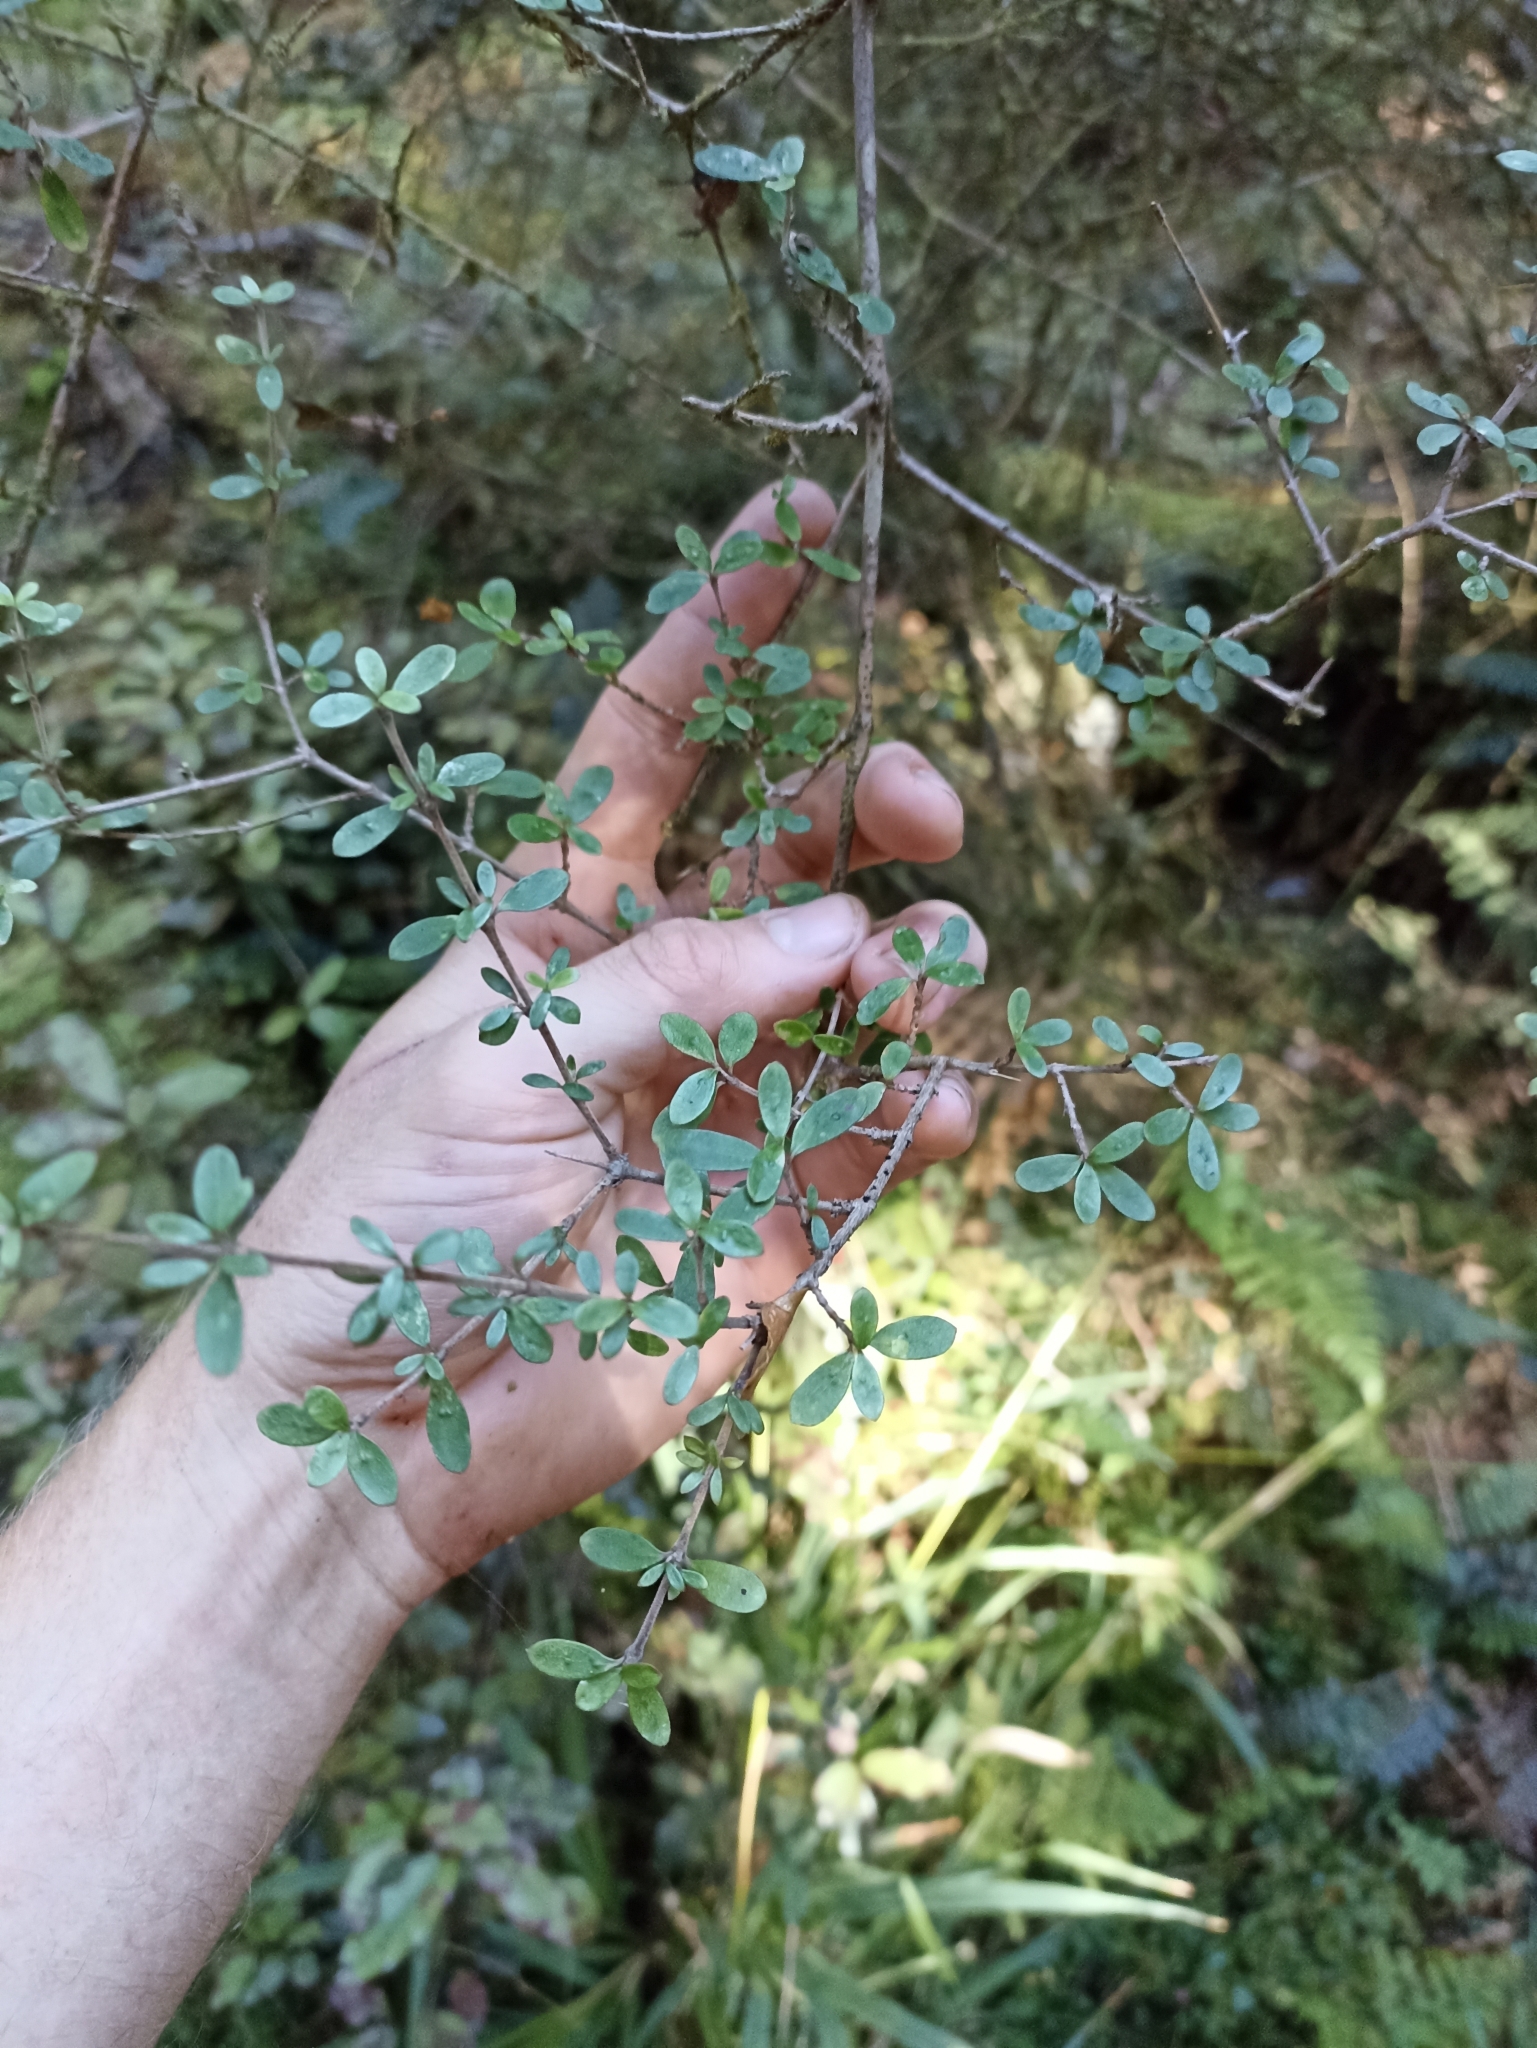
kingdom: Plantae
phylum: Tracheophyta
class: Magnoliopsida
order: Gentianales
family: Rubiaceae
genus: Coprosma
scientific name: Coprosma dumosa
